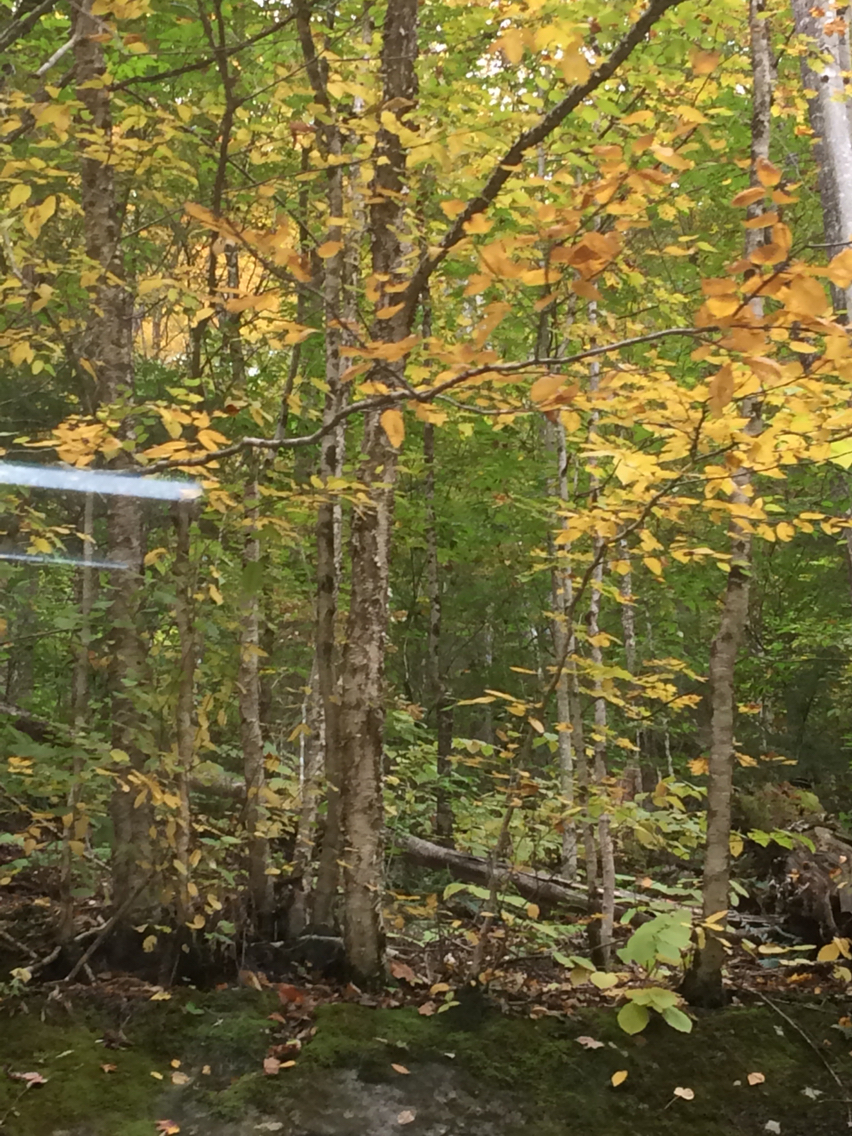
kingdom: Plantae
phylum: Tracheophyta
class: Magnoliopsida
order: Fagales
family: Betulaceae
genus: Betula
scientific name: Betula alleghaniensis
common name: Yellow birch
